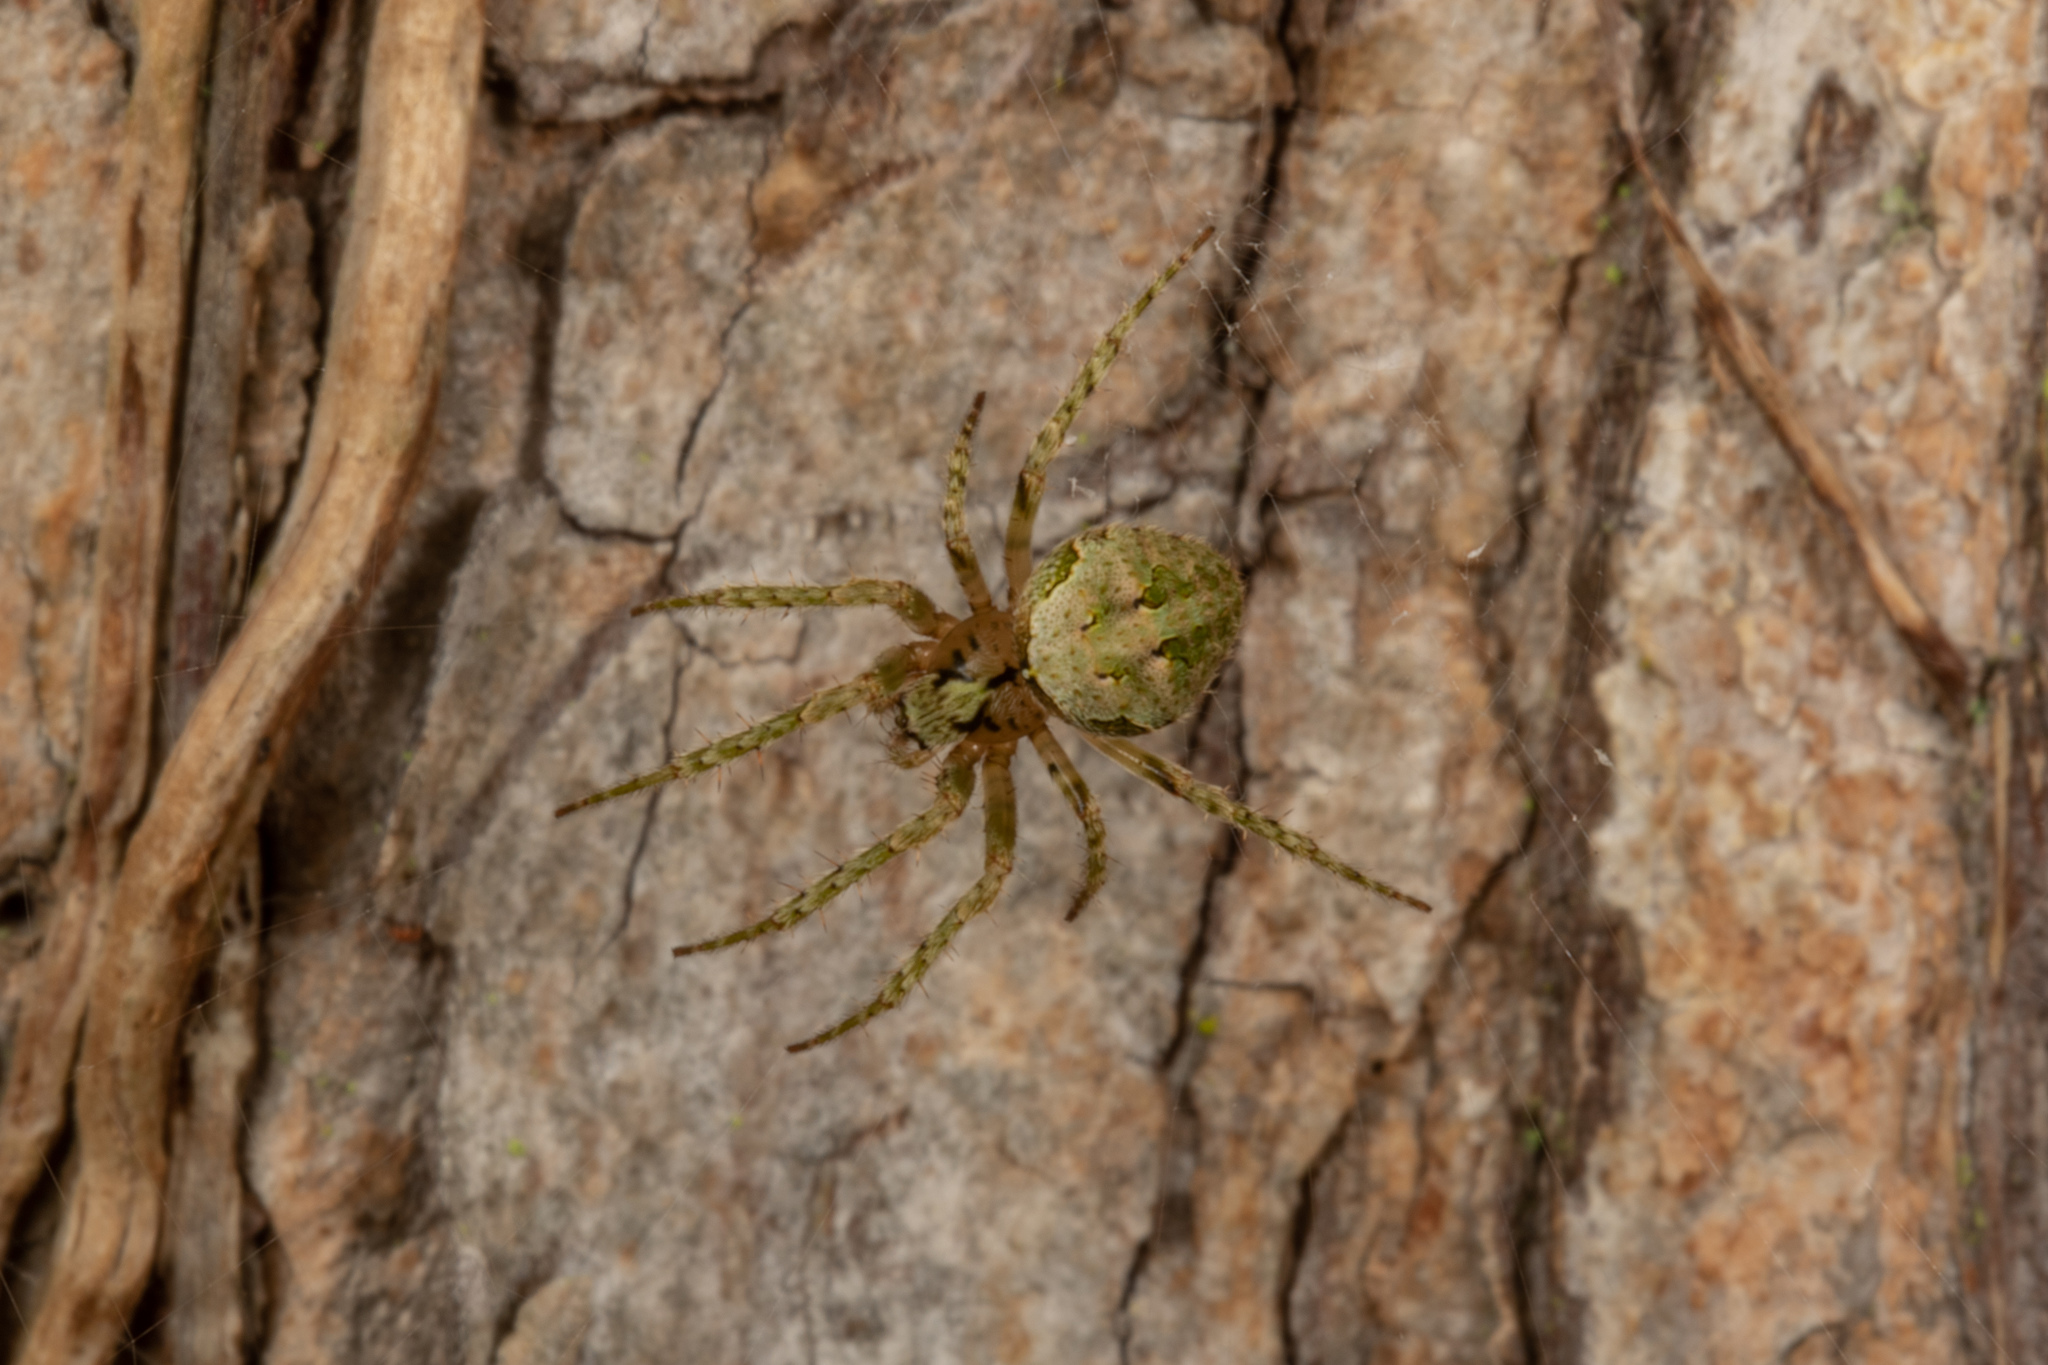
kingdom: Animalia
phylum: Arthropoda
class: Arachnida
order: Araneae
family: Araneidae
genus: Cryptaranea
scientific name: Cryptaranea atrihastula
